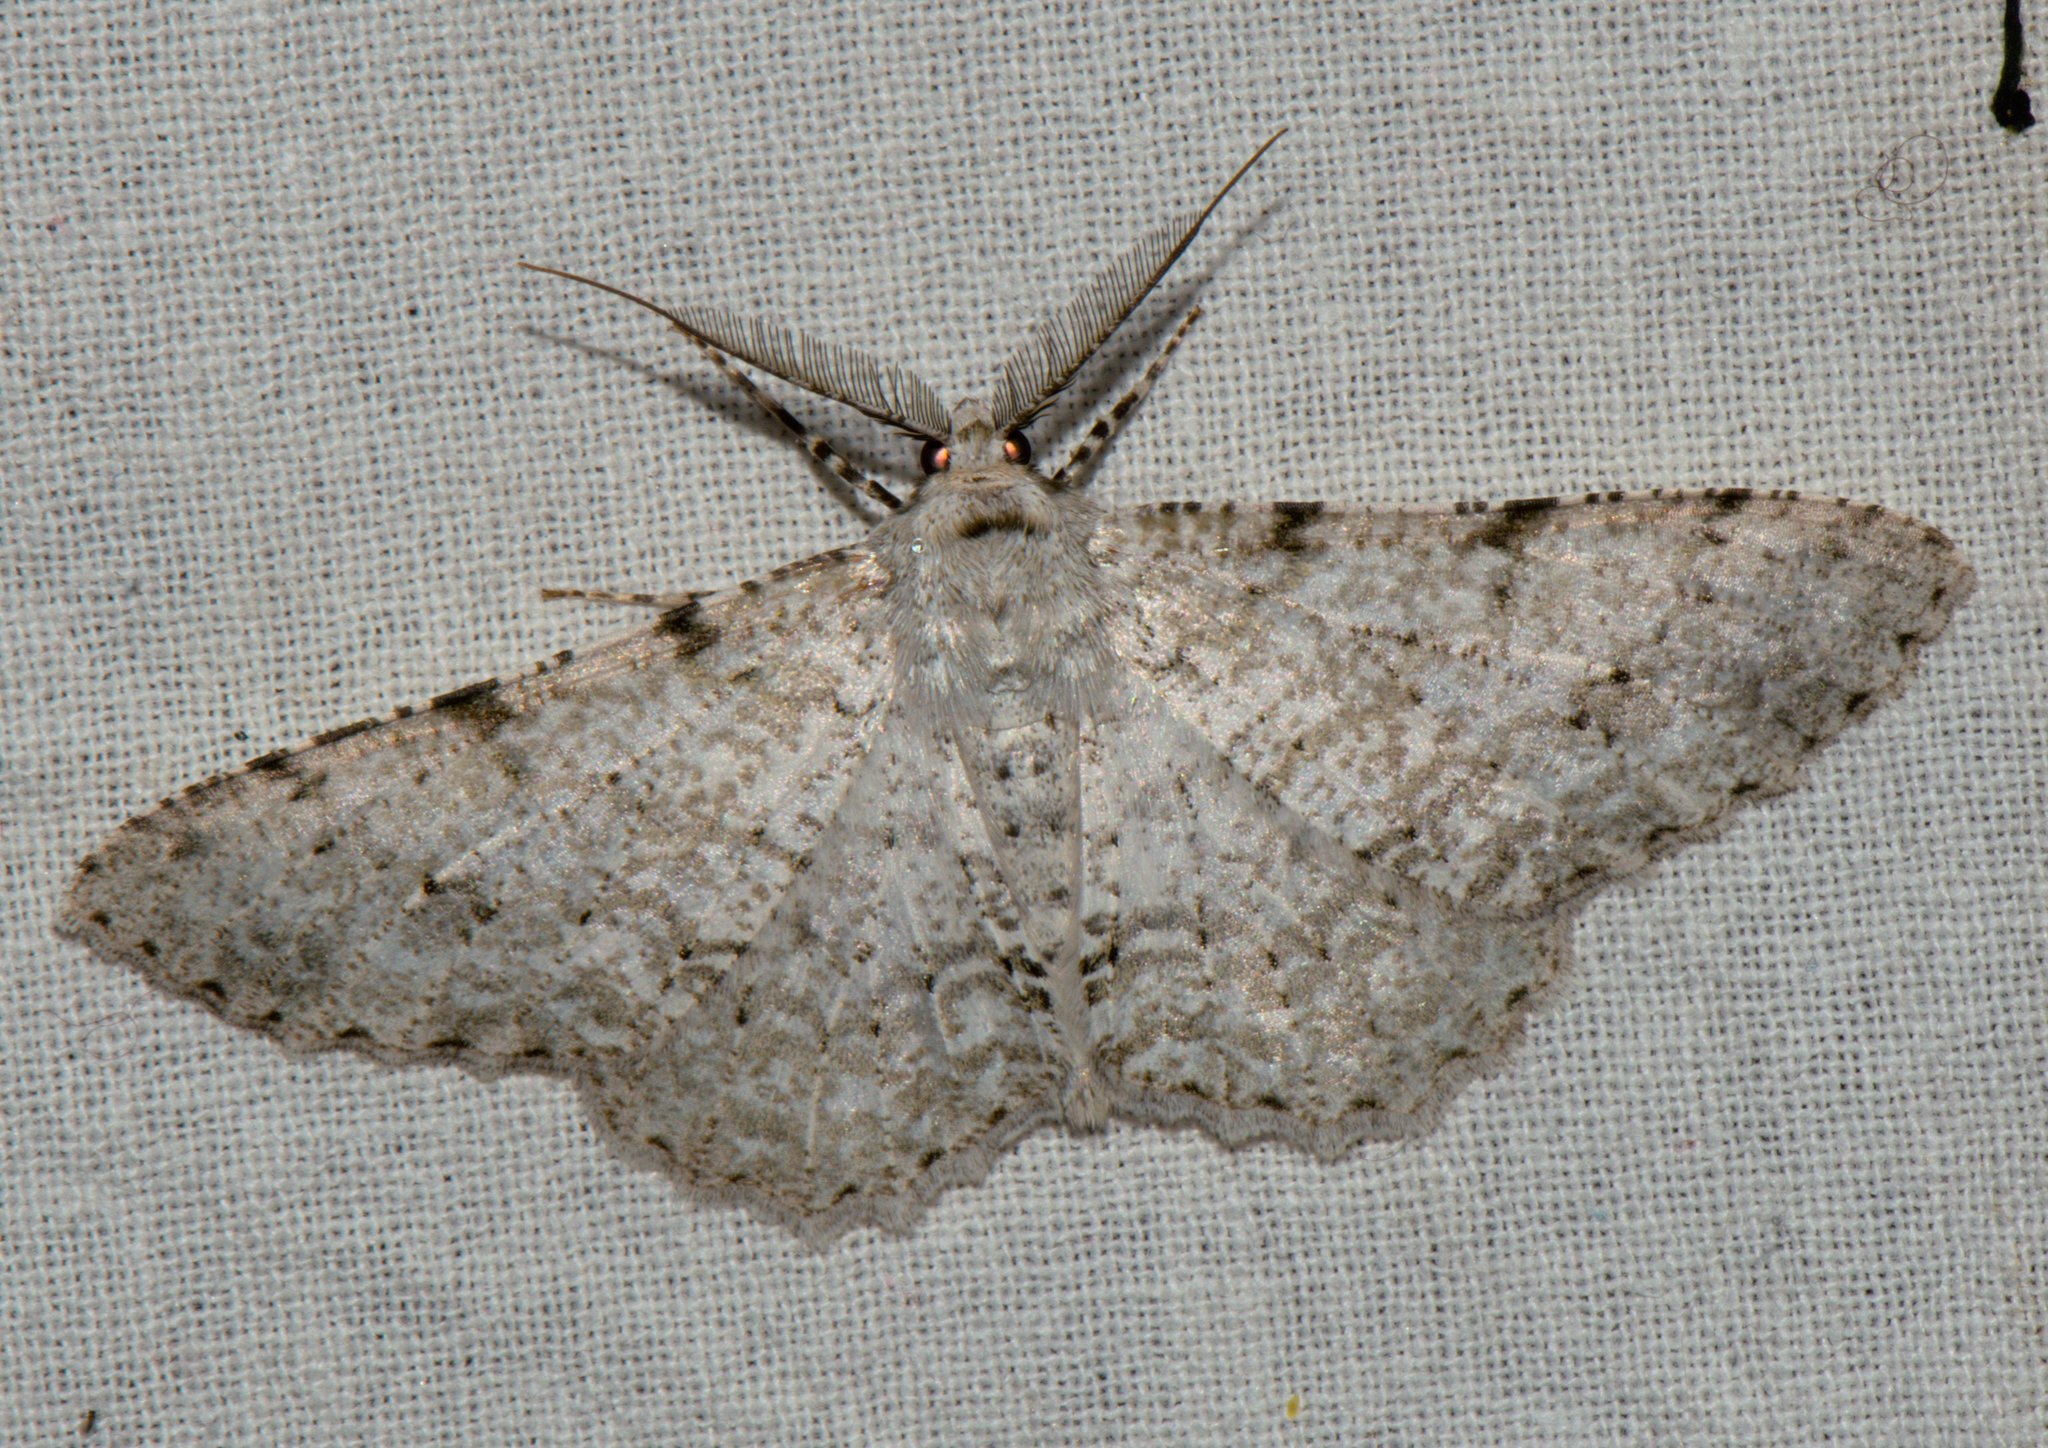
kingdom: Animalia
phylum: Arthropoda
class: Insecta
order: Lepidoptera
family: Geometridae
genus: Lassaba
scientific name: Lassaba albidaria
